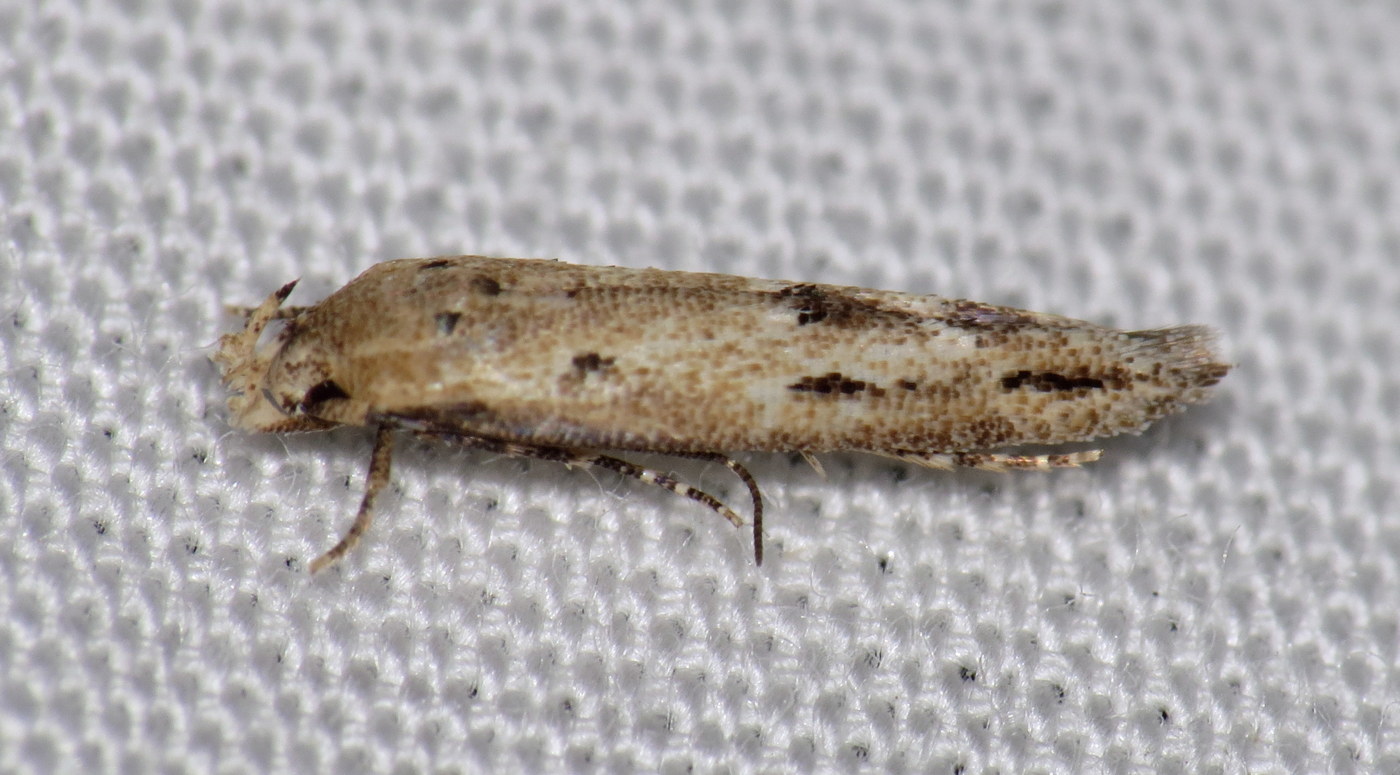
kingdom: Animalia
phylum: Arthropoda
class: Insecta
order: Lepidoptera
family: Momphidae
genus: Mompha
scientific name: Mompha brevivittella
